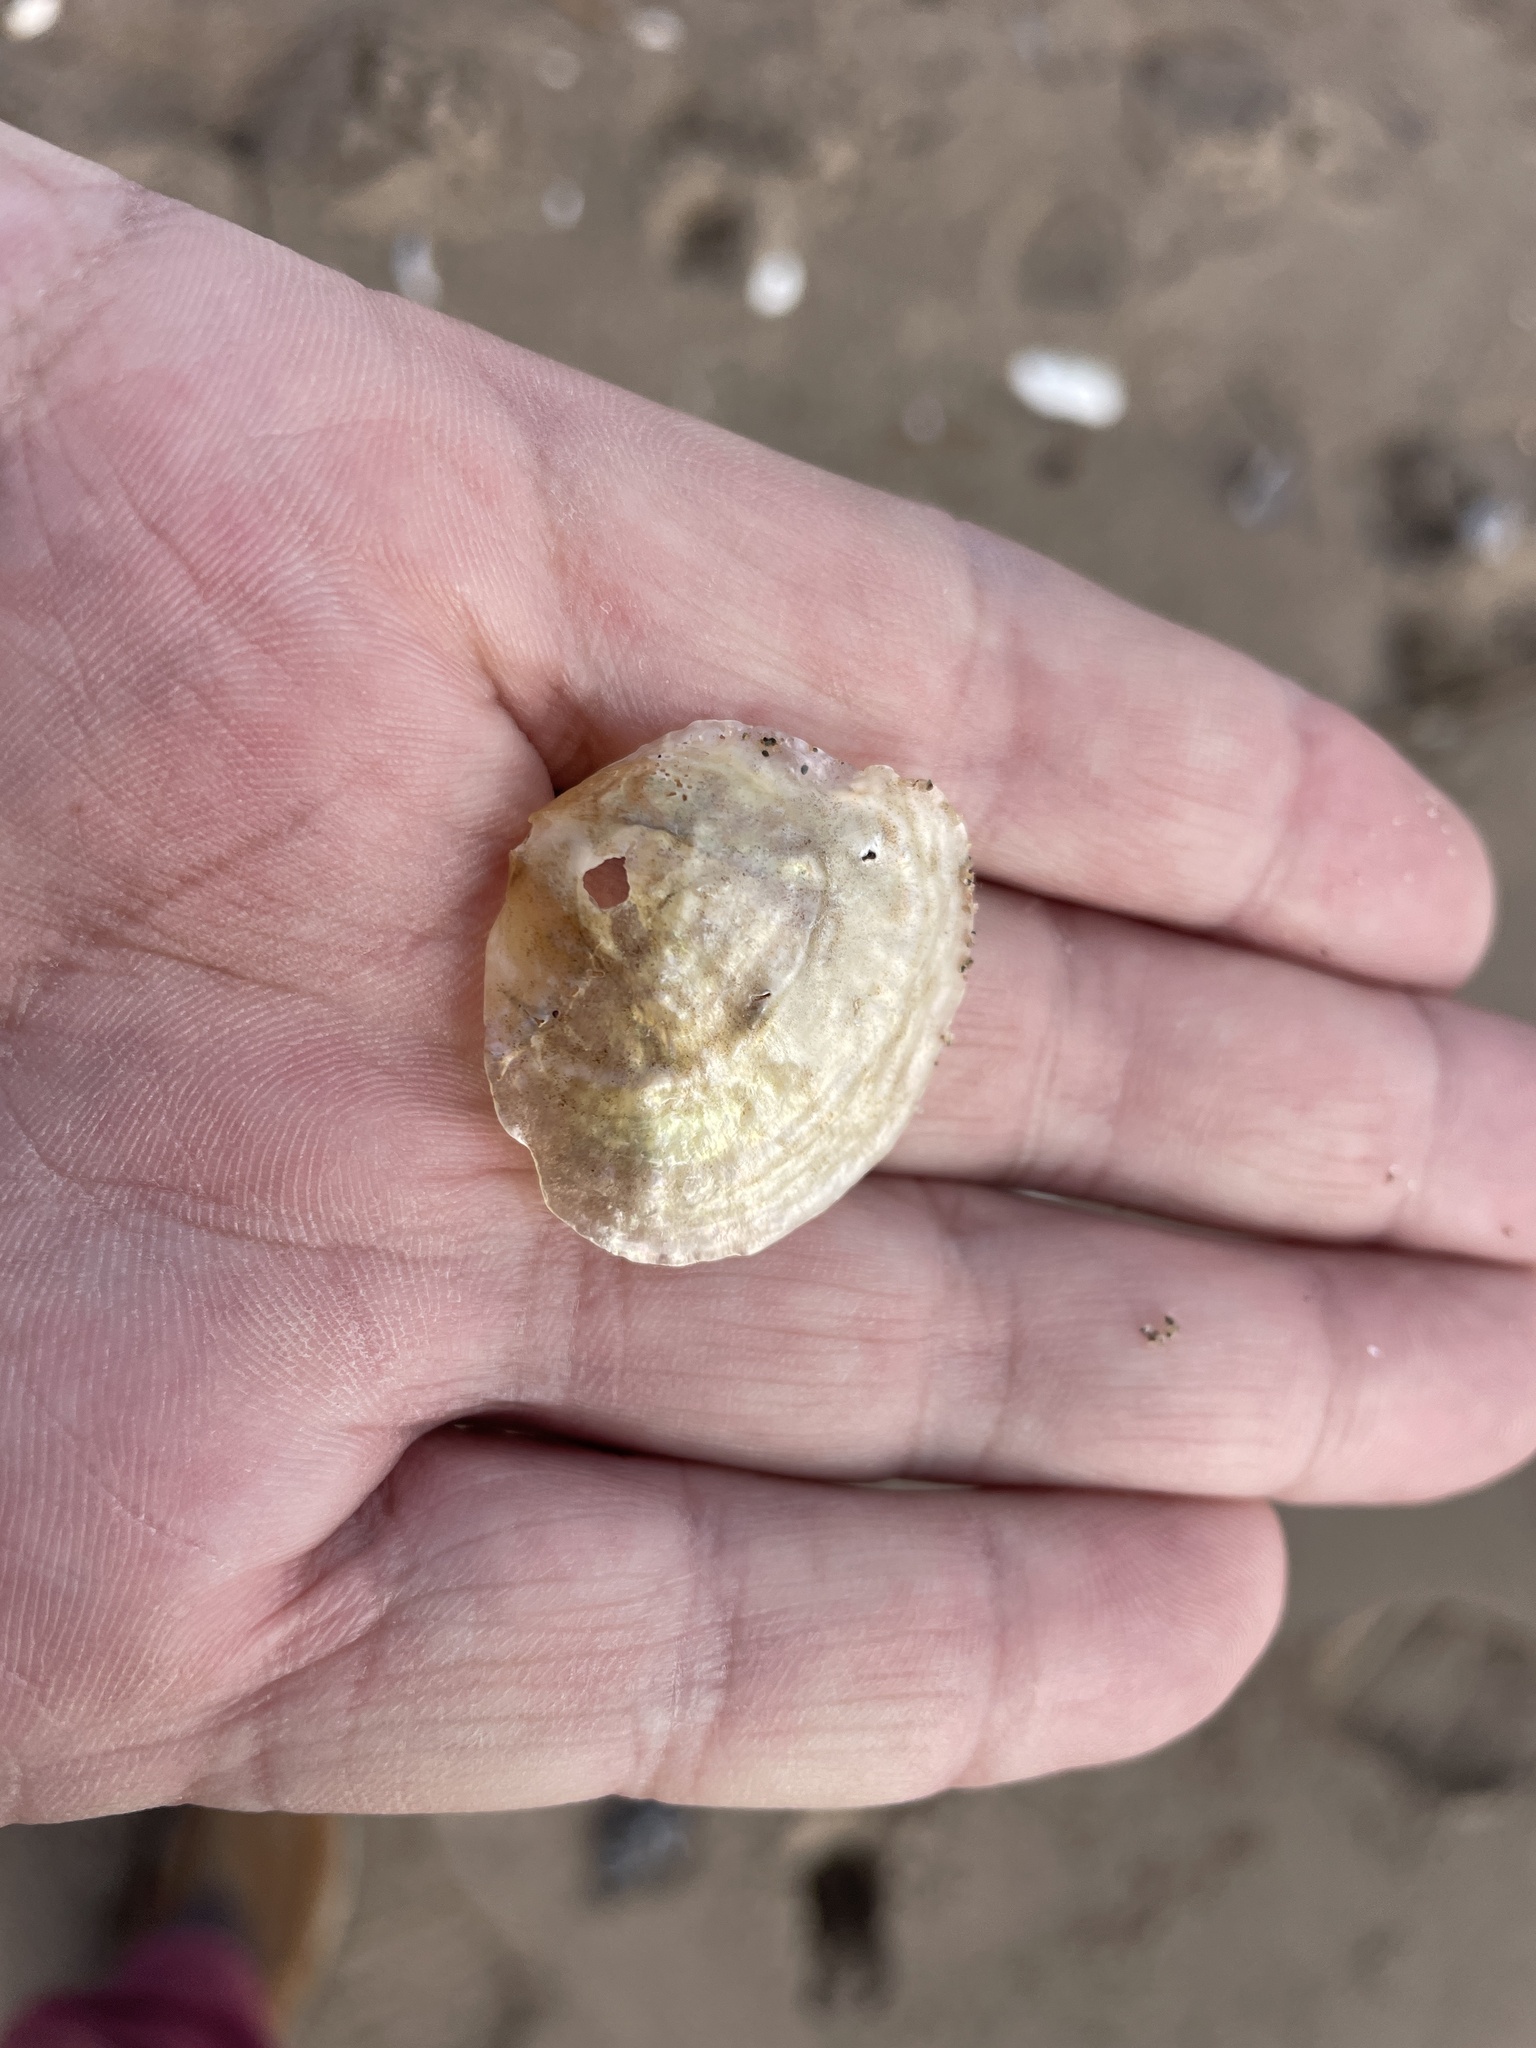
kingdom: Animalia
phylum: Mollusca
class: Bivalvia
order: Pectinida
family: Anomiidae
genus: Anomia
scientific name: Anomia simplex
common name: Common jingle shell
